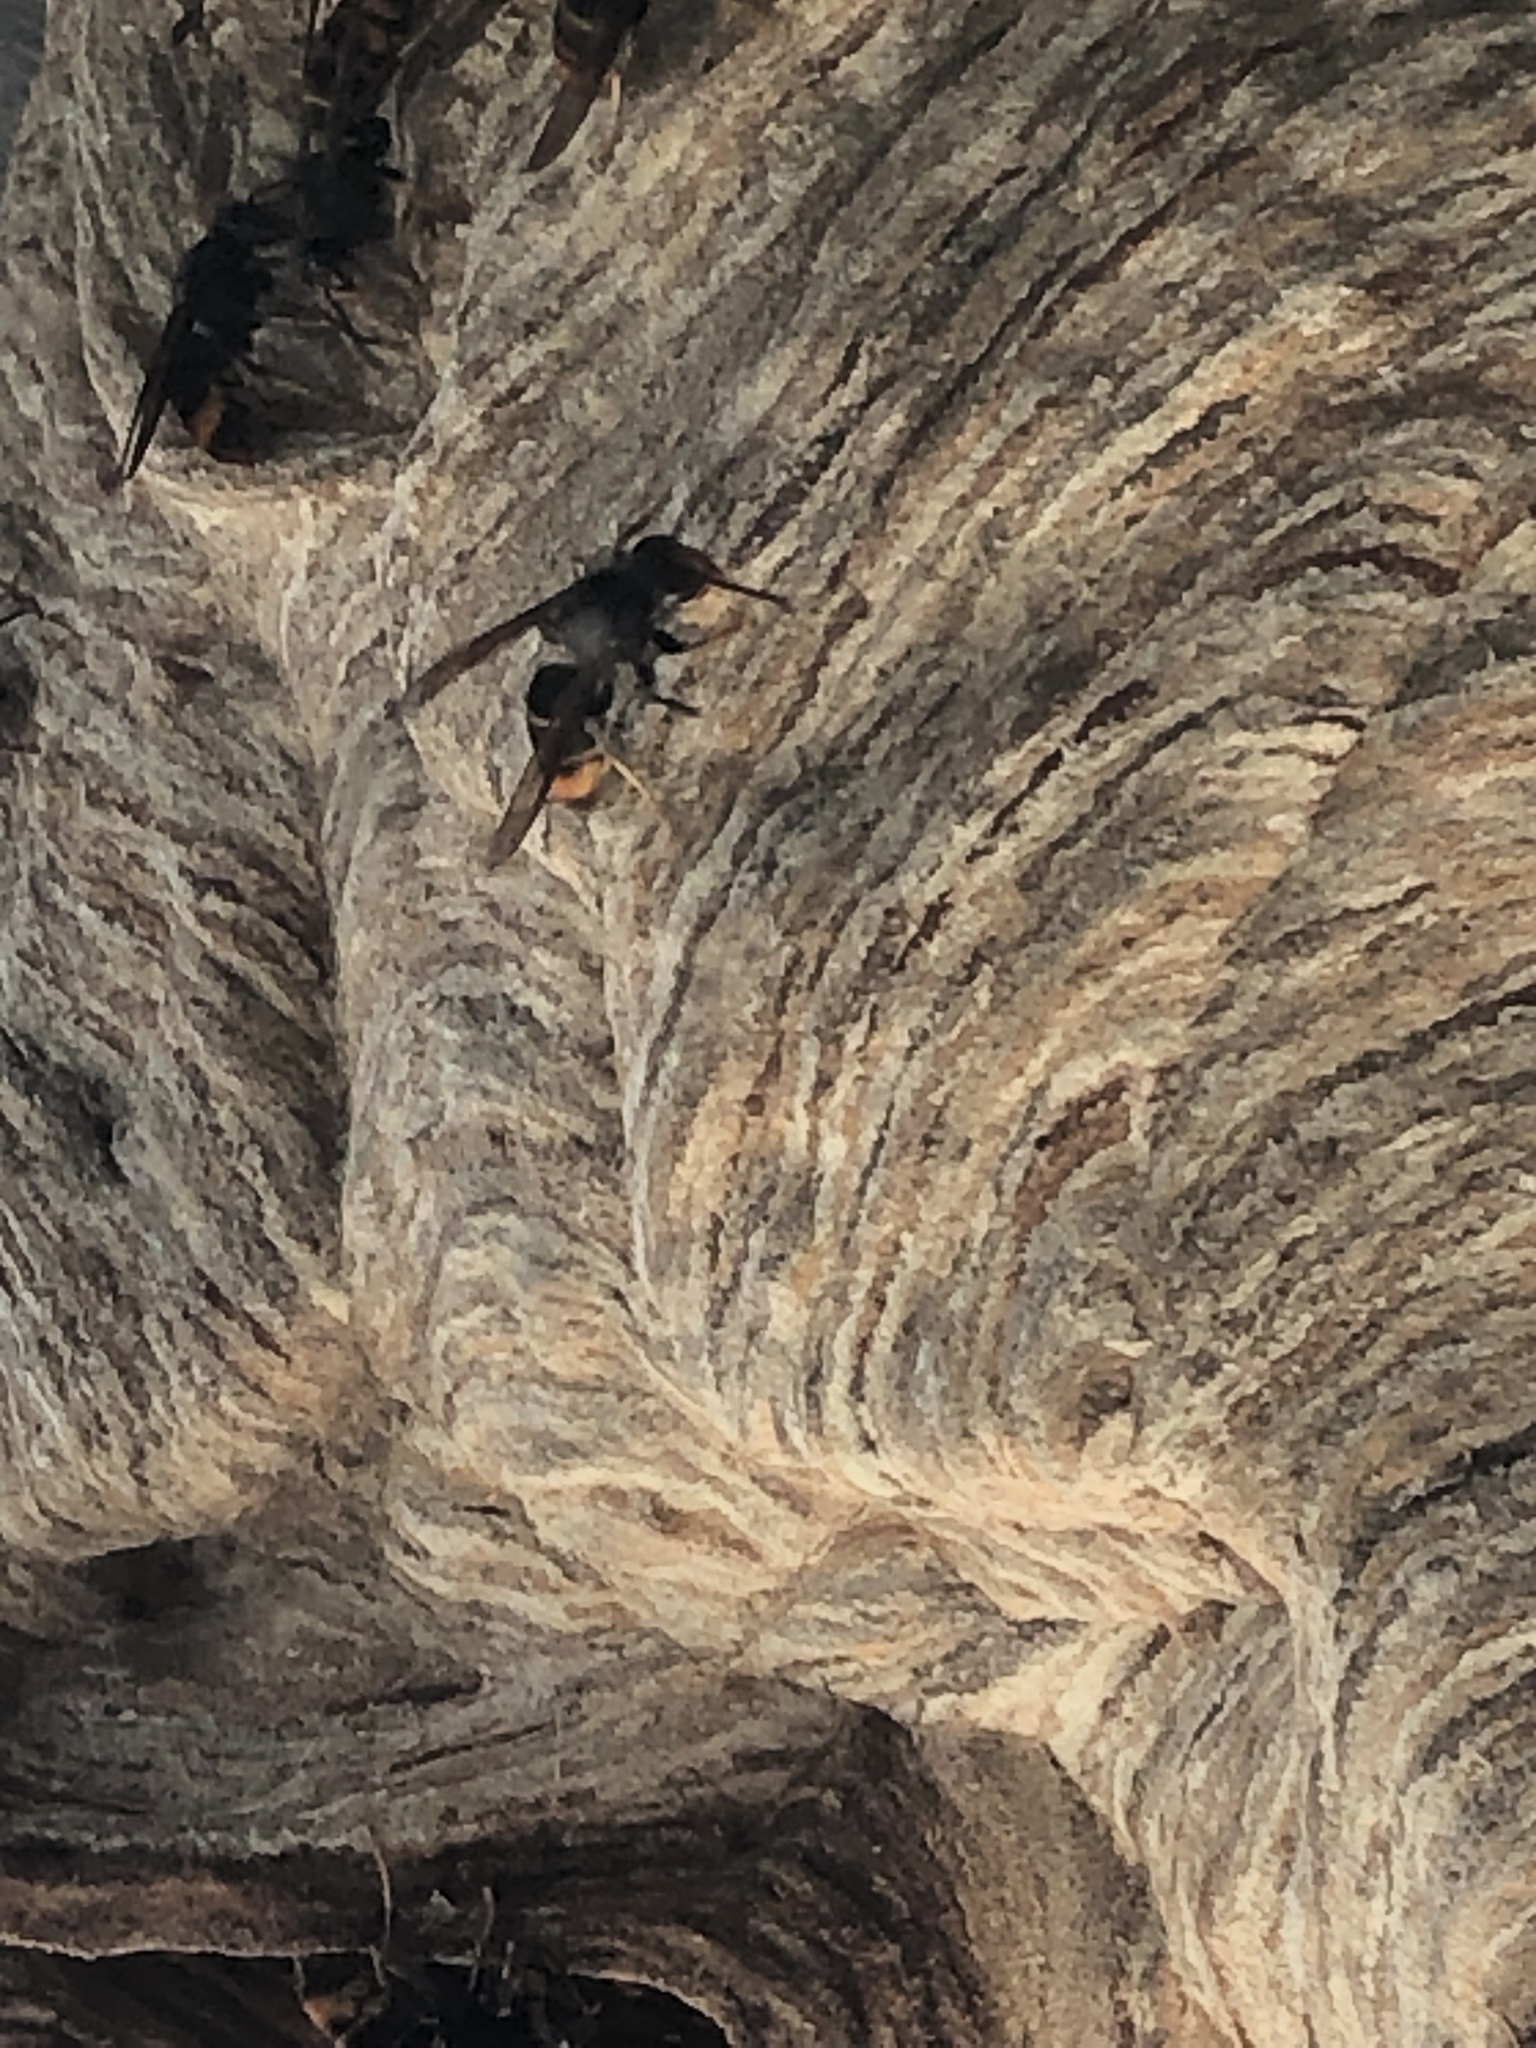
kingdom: Animalia
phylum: Arthropoda
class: Insecta
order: Hymenoptera
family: Vespidae
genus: Vespa
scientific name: Vespa velutina
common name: Asian hornet
